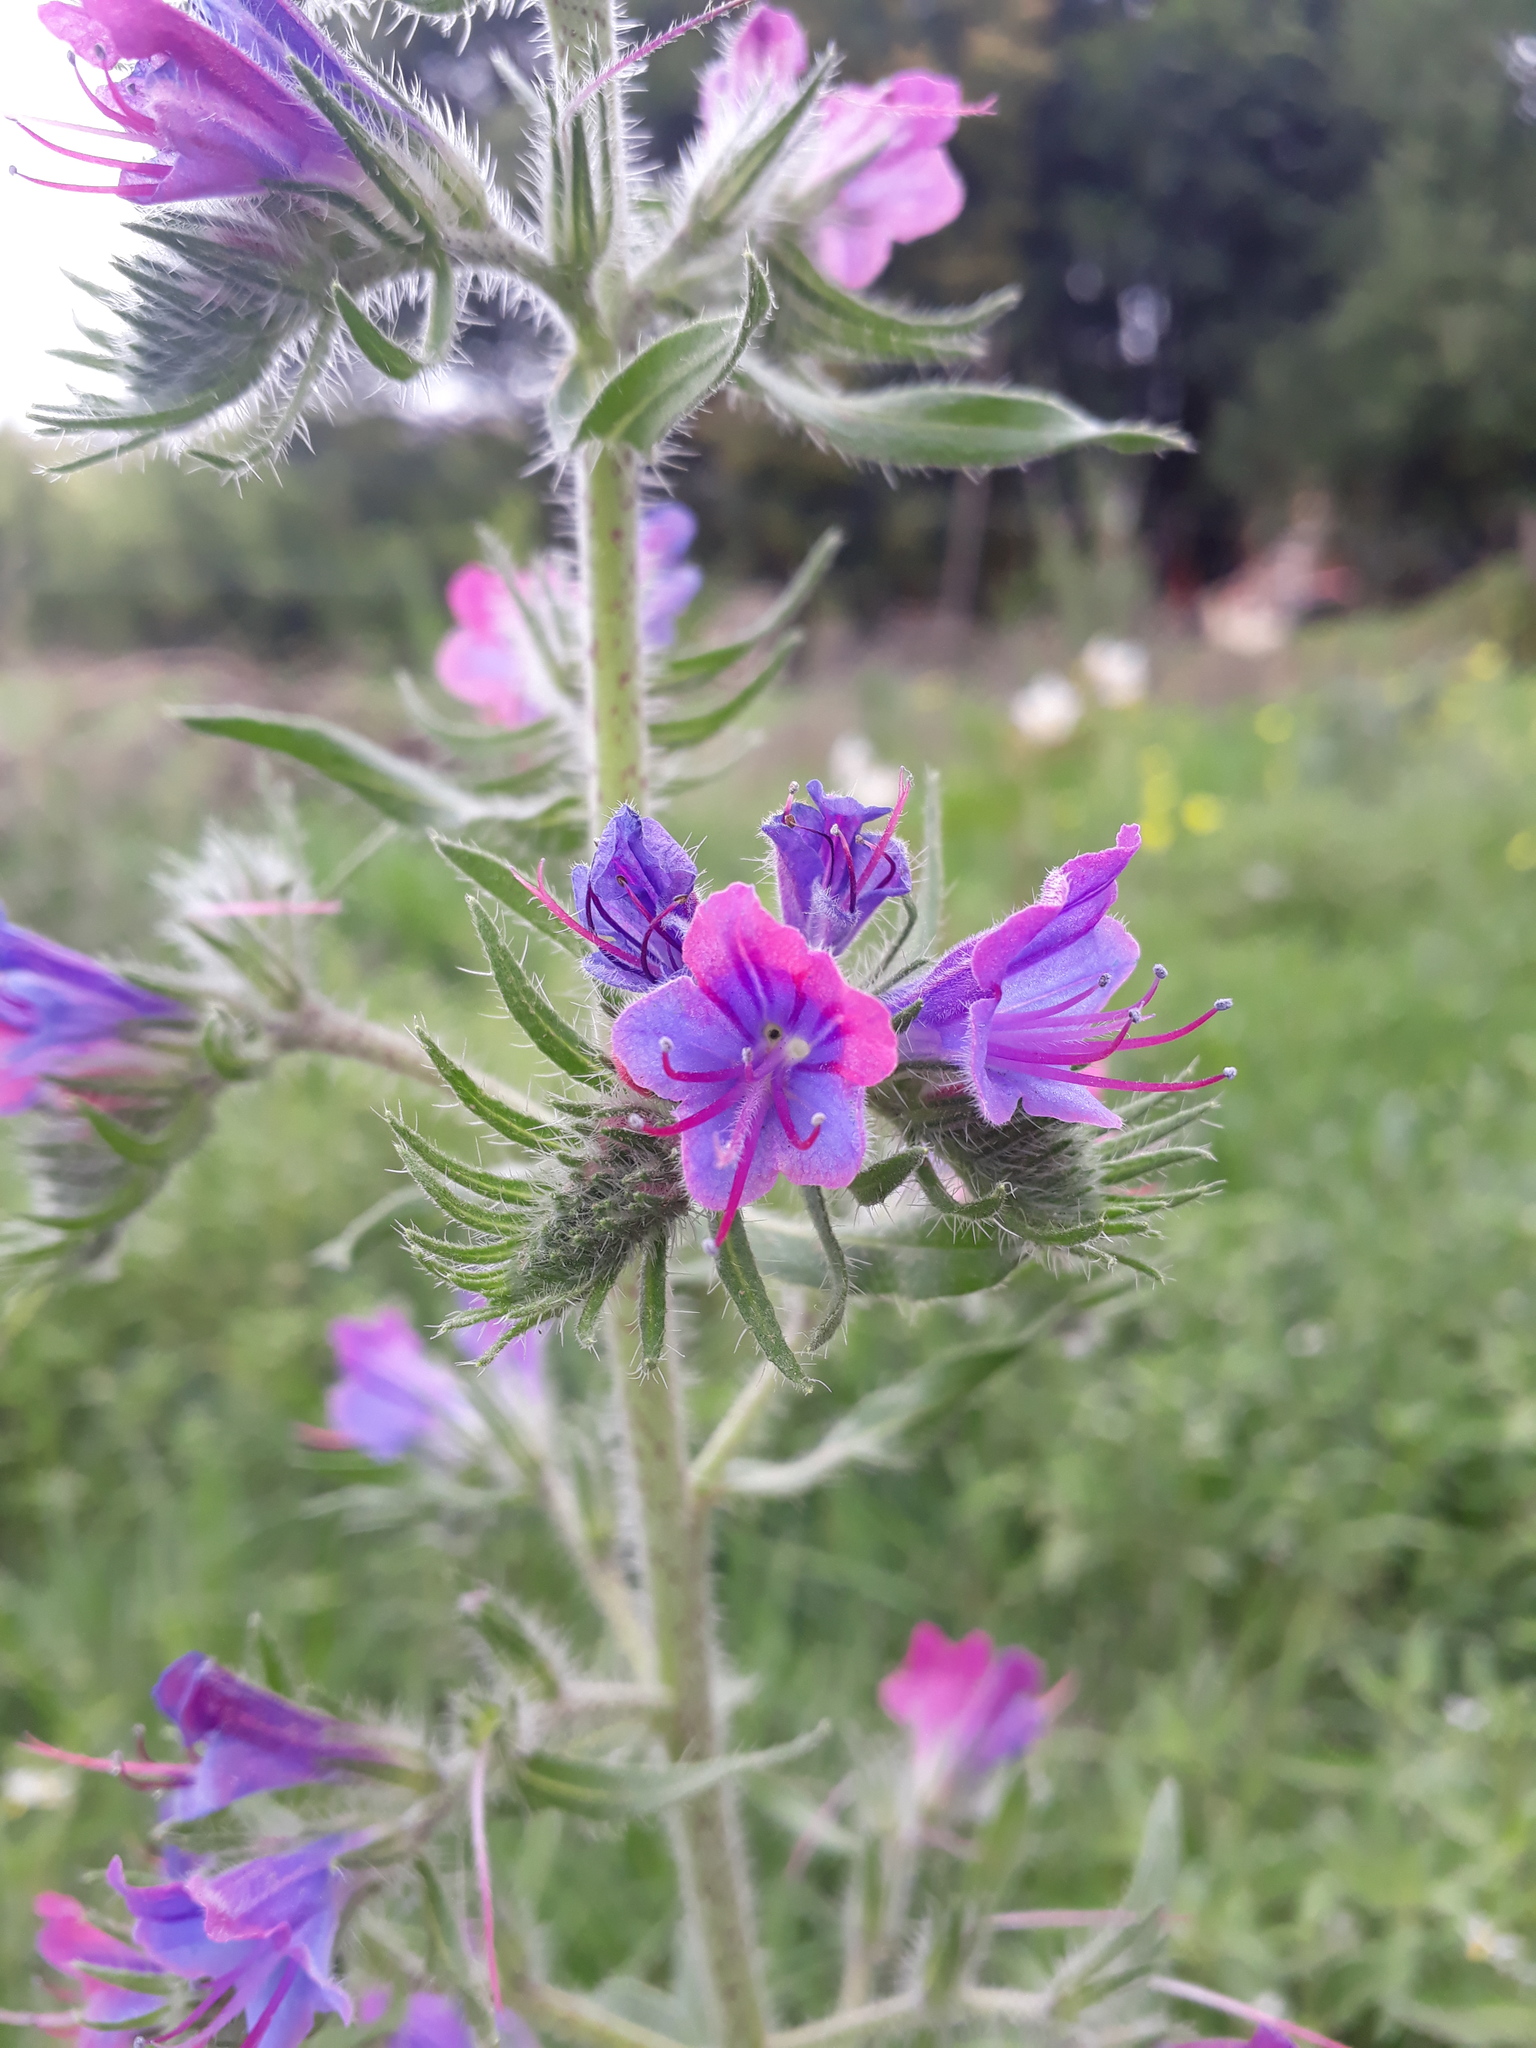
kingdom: Plantae
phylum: Tracheophyta
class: Magnoliopsida
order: Boraginales
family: Boraginaceae
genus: Echium
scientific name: Echium vulgare
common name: Common viper's bugloss
